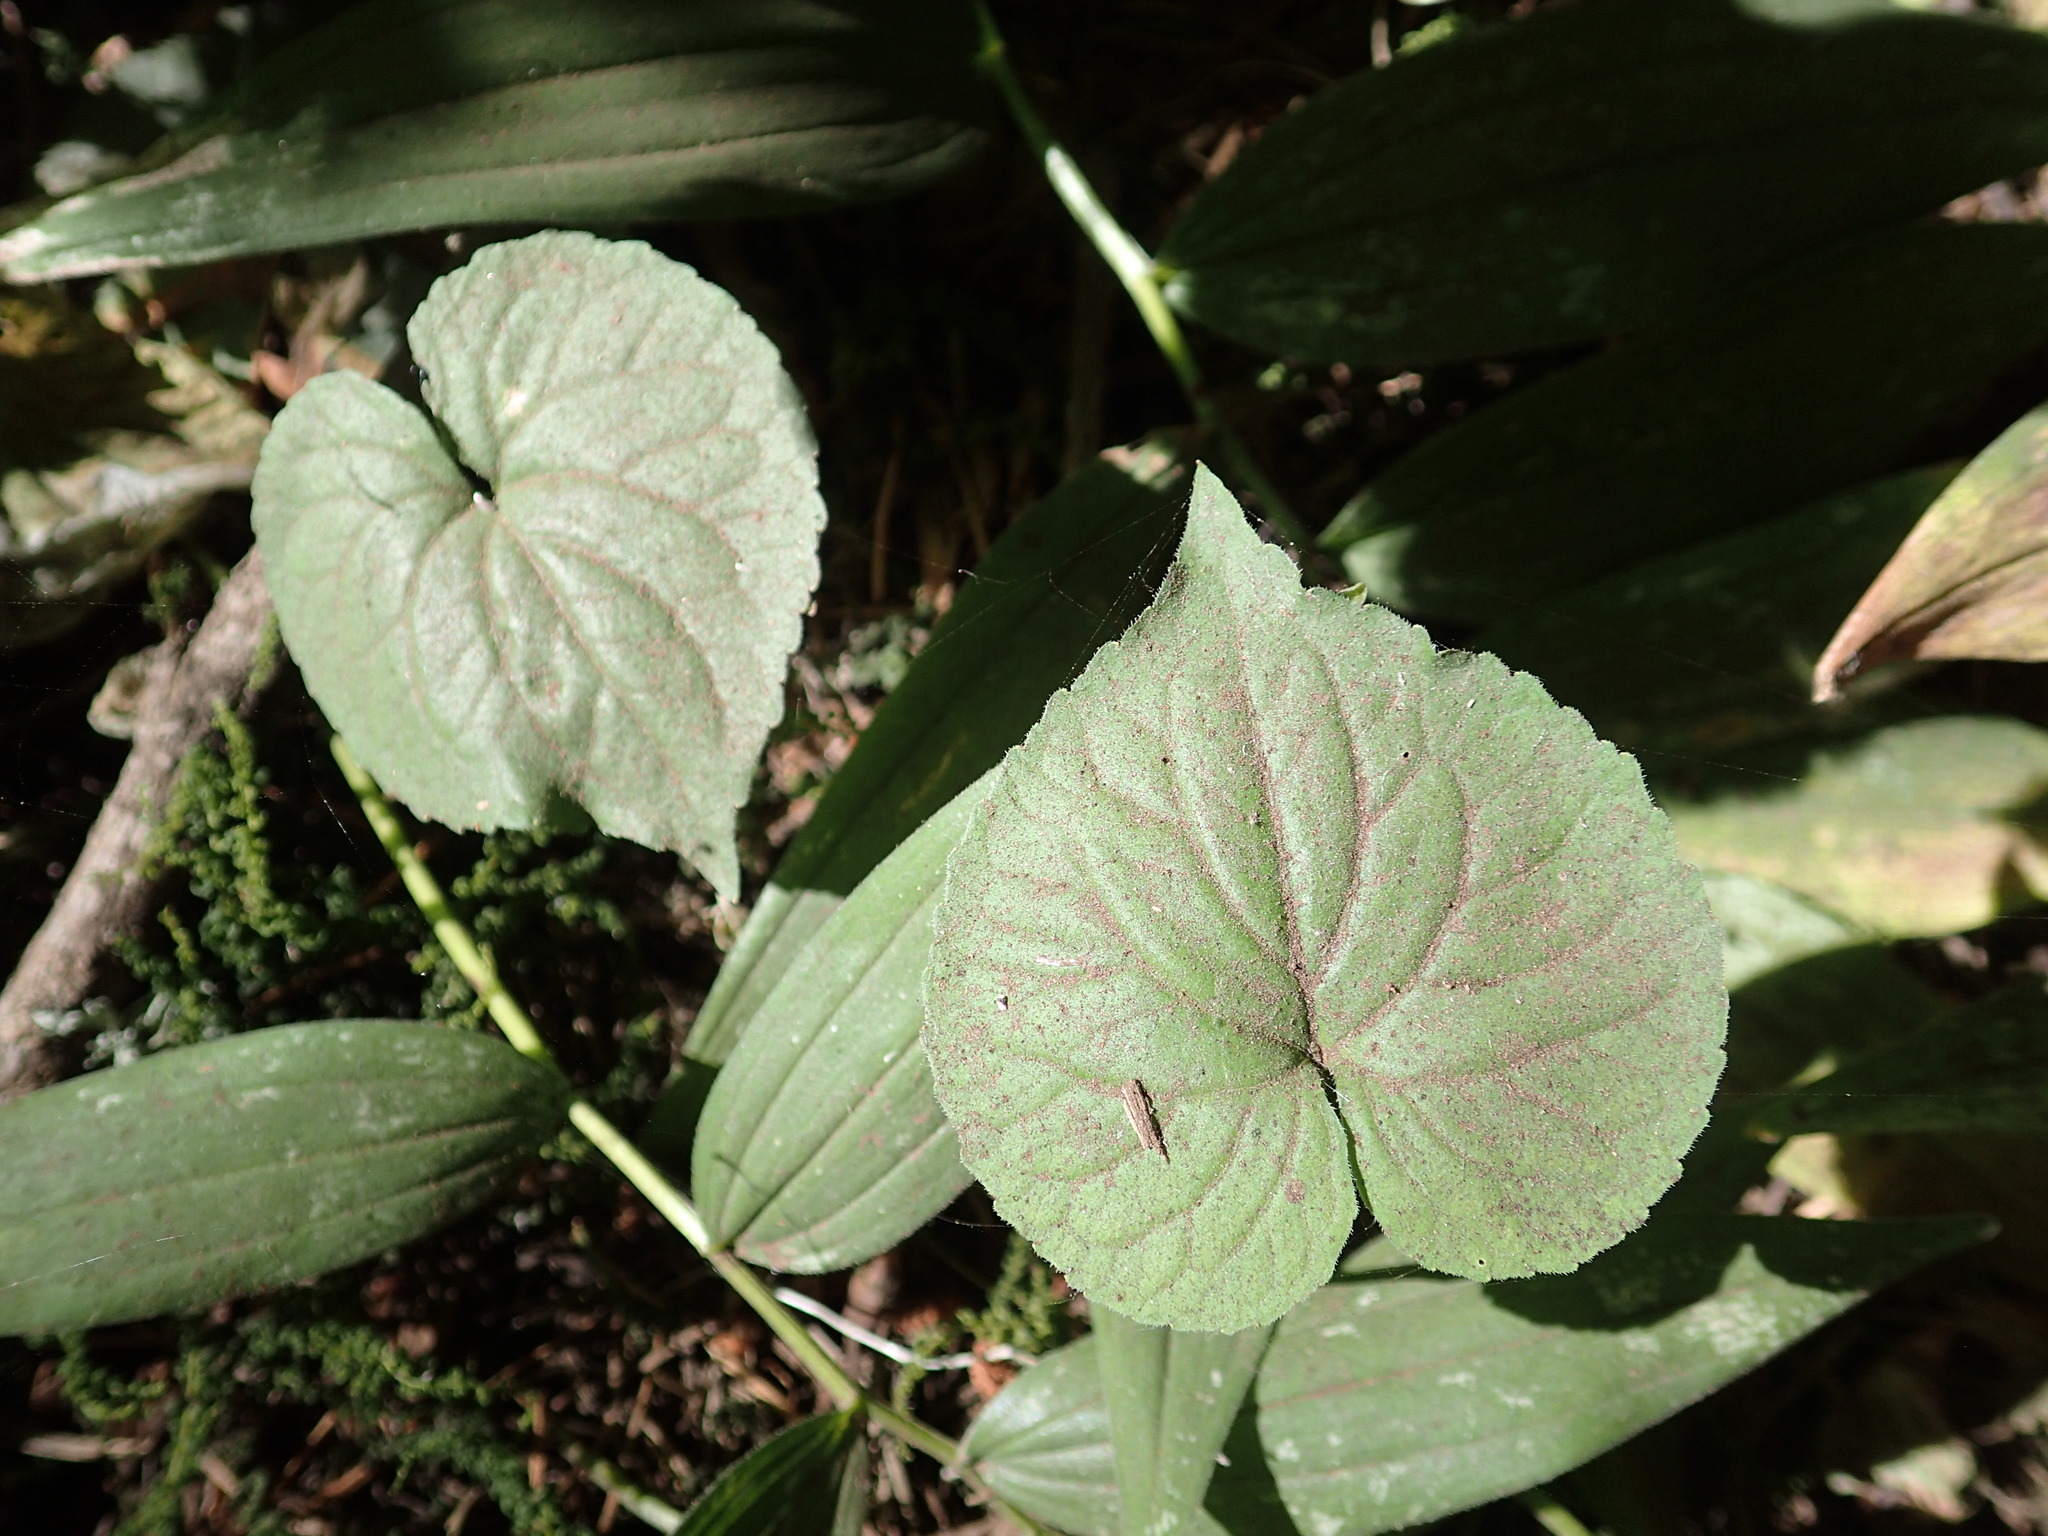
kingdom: Plantae
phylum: Tracheophyta
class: Magnoliopsida
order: Malpighiales
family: Violaceae
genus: Viola
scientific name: Viola glabella
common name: Stream violet
